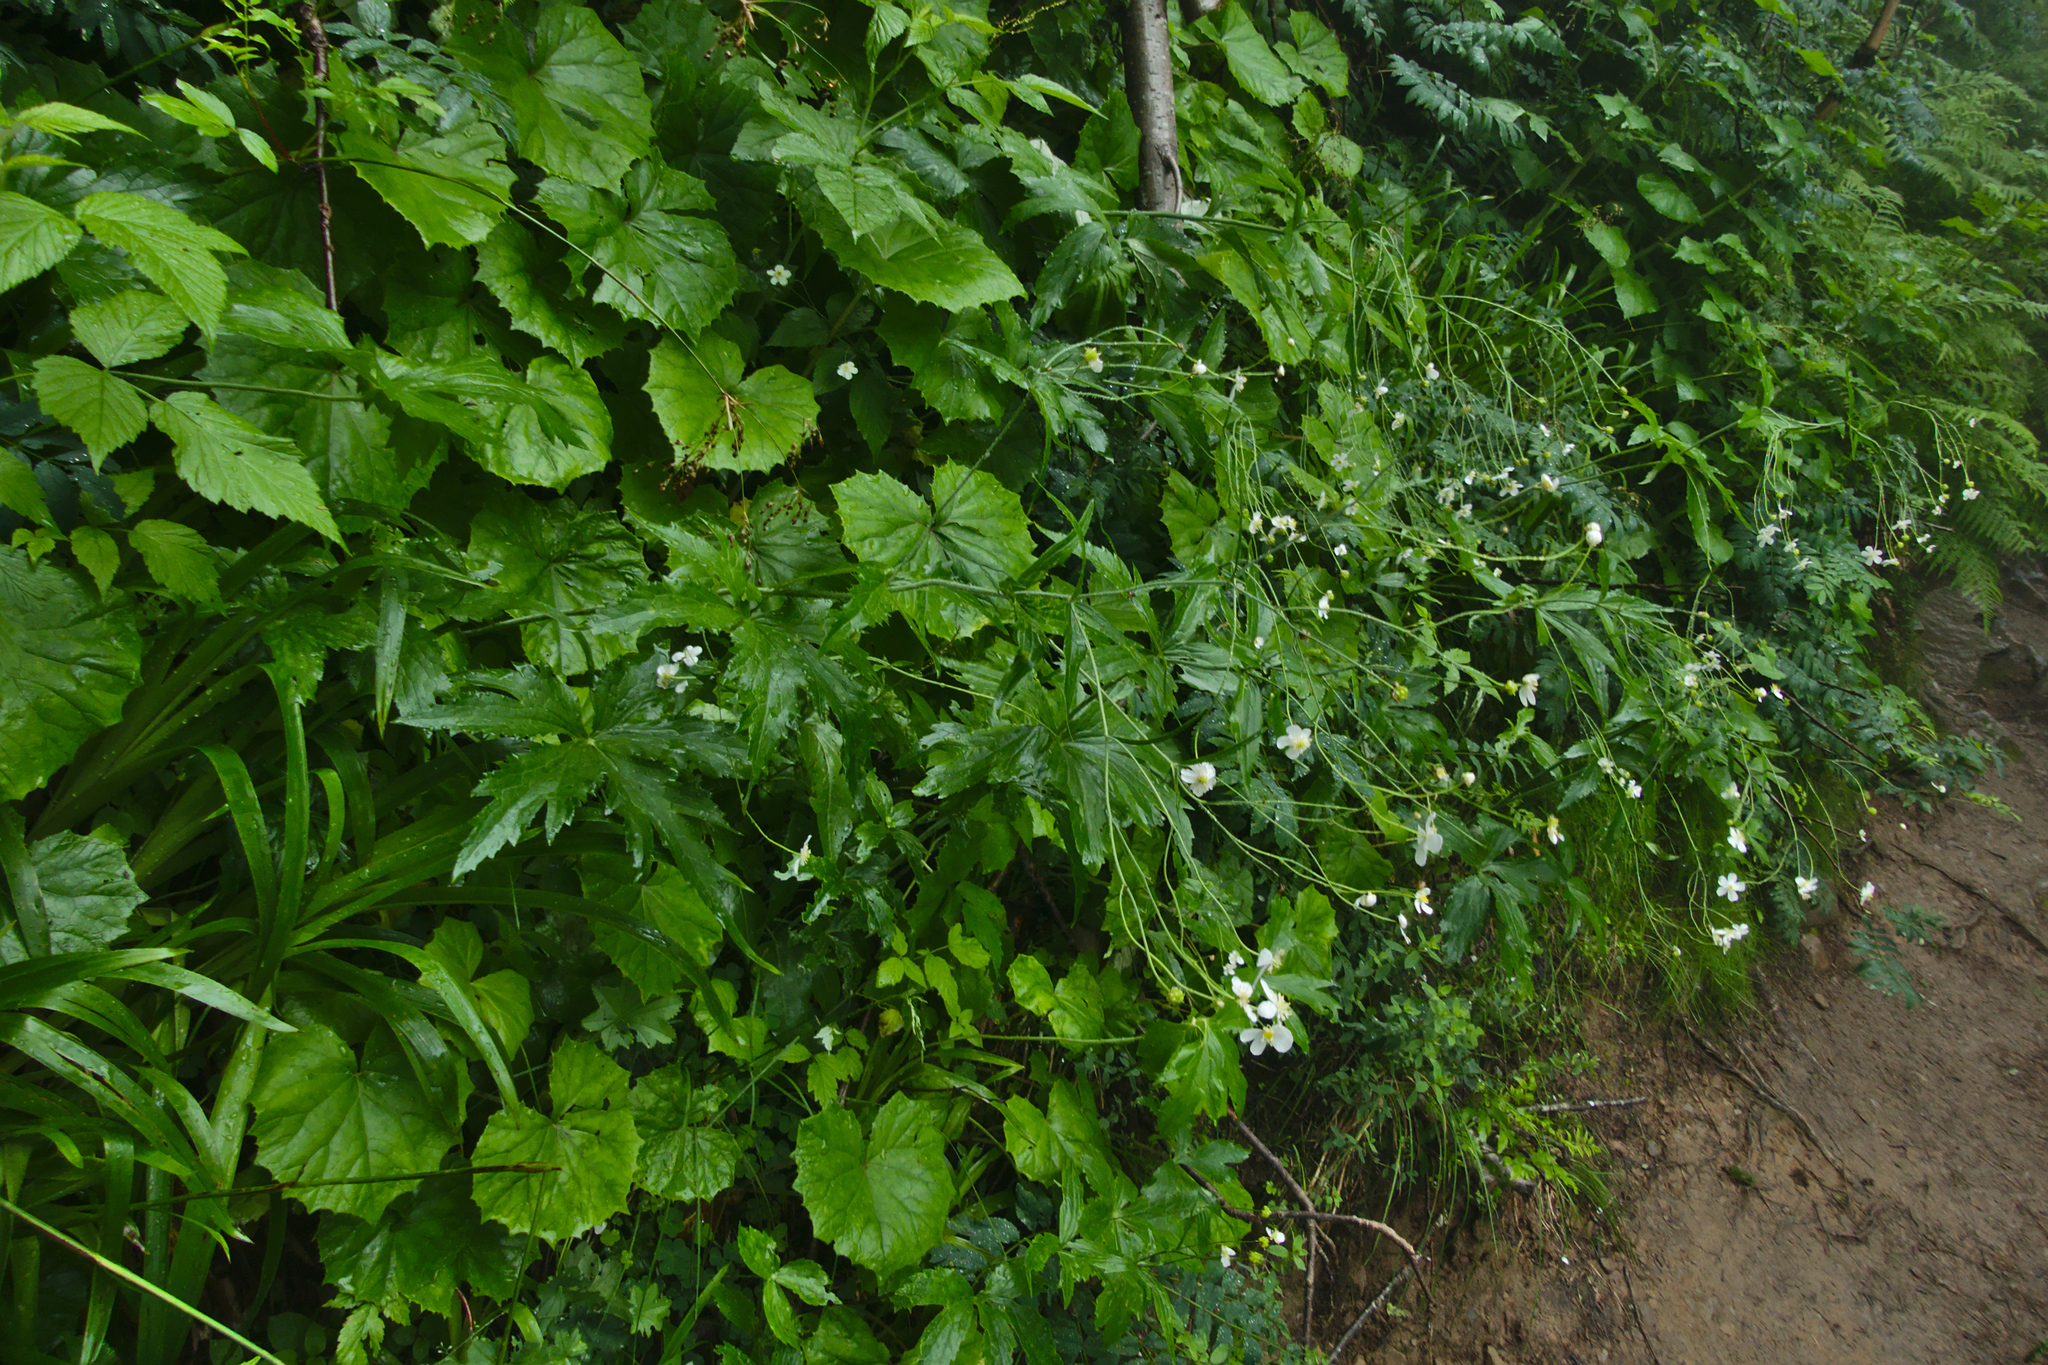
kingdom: Plantae
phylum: Tracheophyta
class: Magnoliopsida
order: Ranunculales
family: Ranunculaceae
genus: Ranunculus
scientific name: Ranunculus platanifolius
